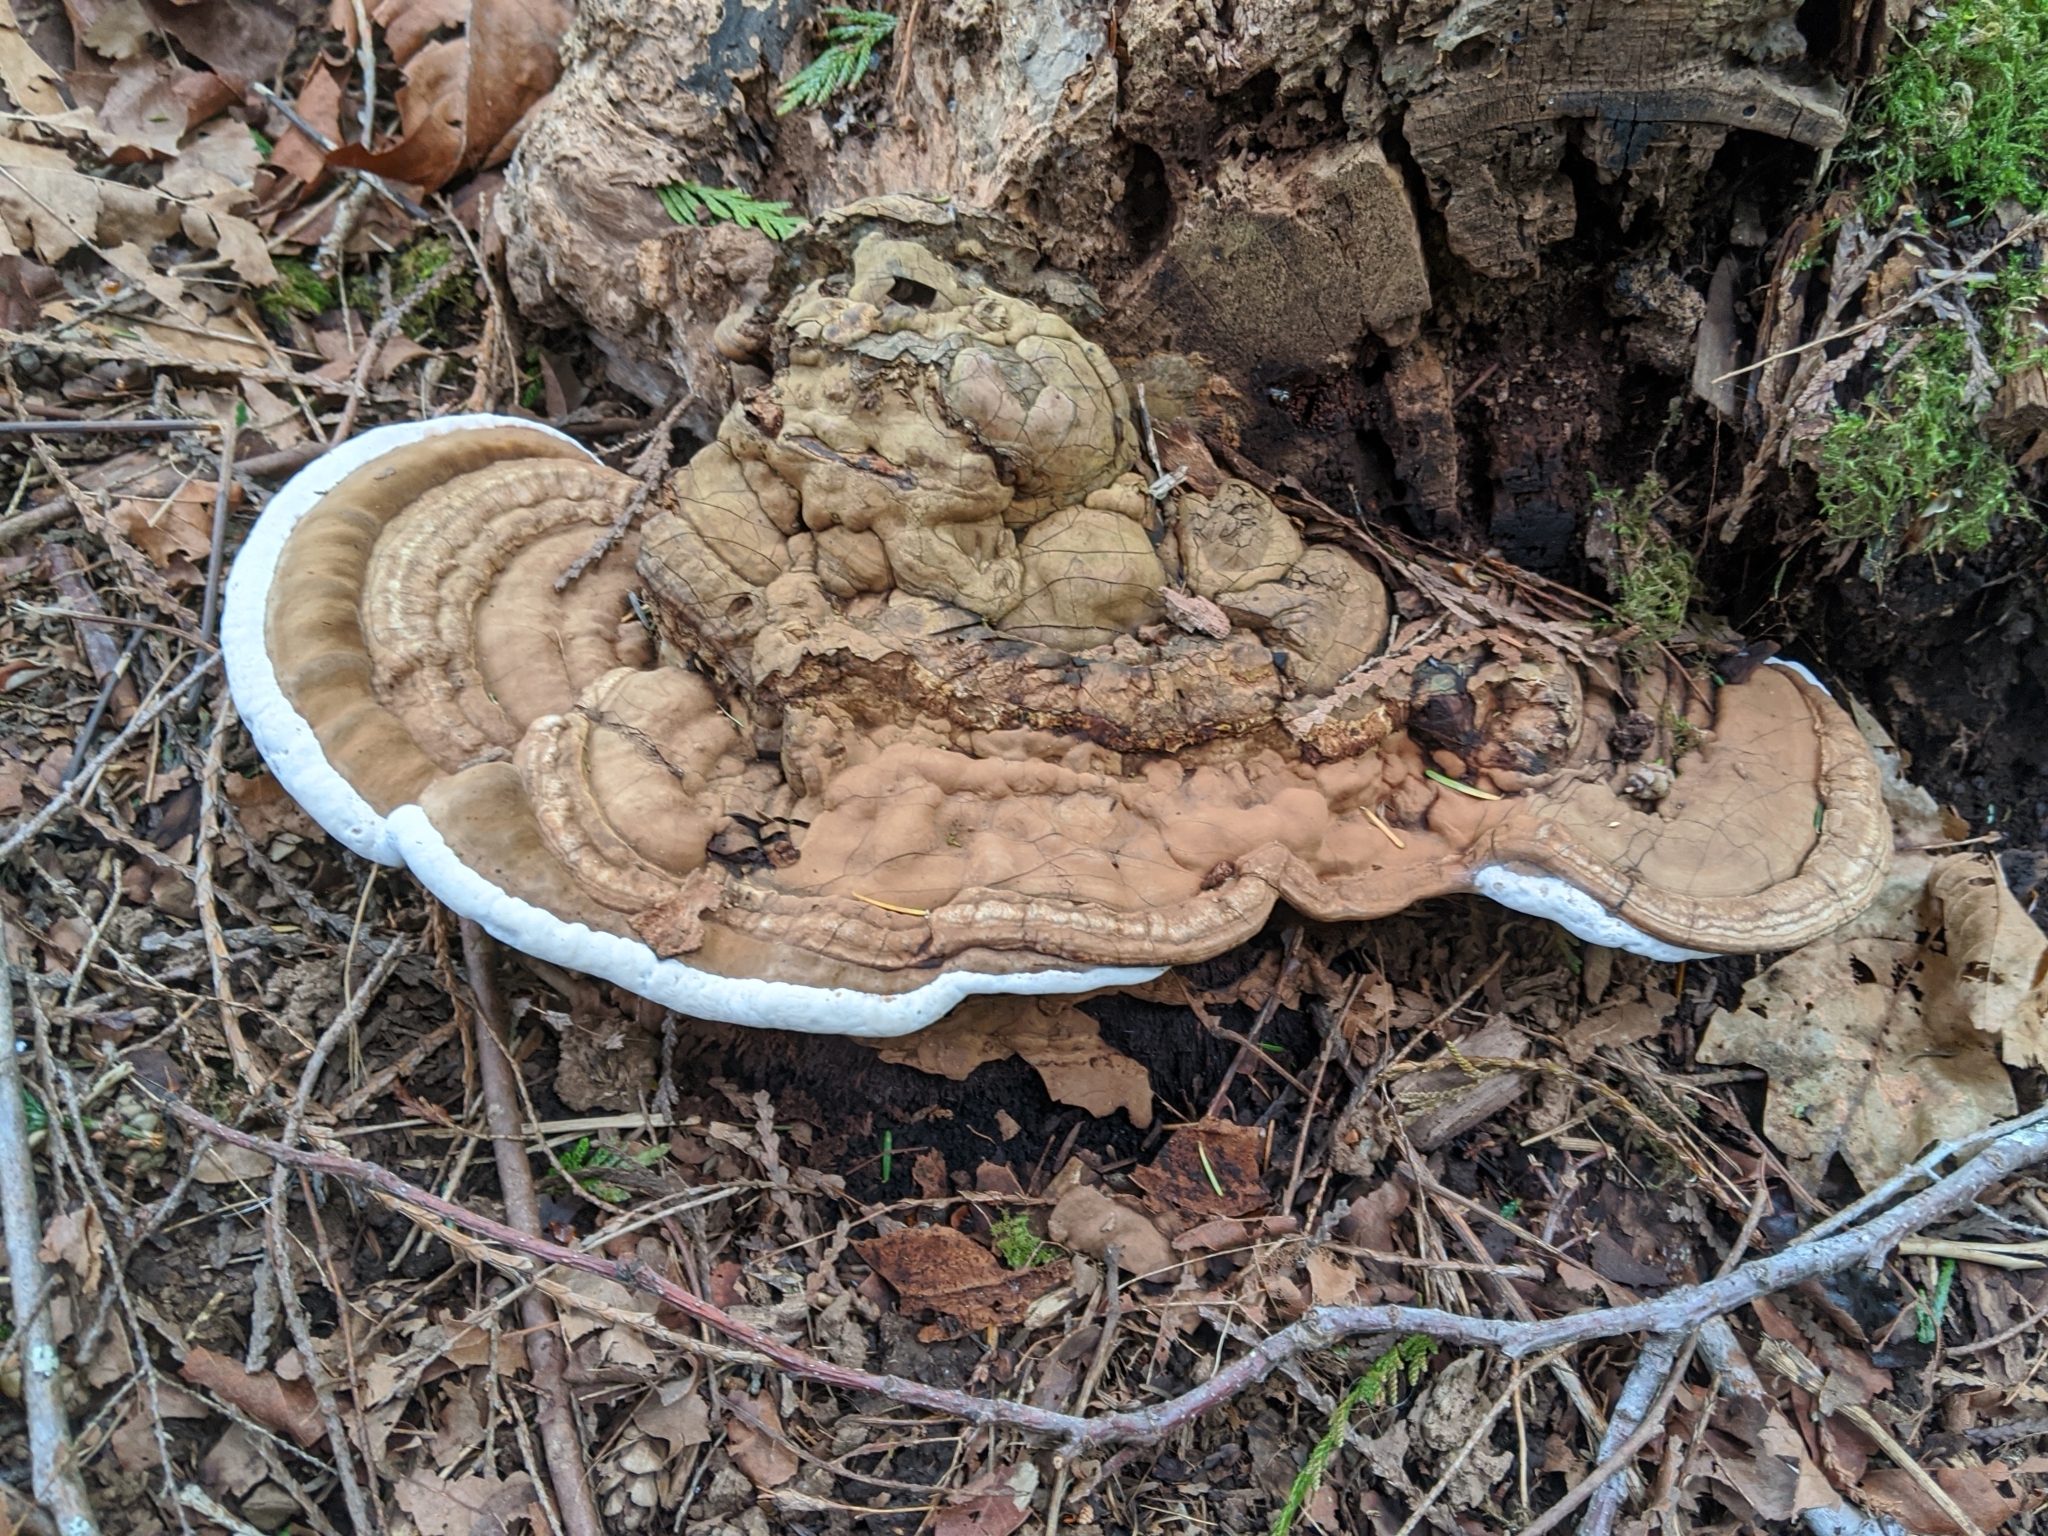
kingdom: Fungi
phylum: Basidiomycota
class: Agaricomycetes
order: Polyporales
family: Polyporaceae
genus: Ganoderma
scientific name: Ganoderma applanatum
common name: Artist's bracket
